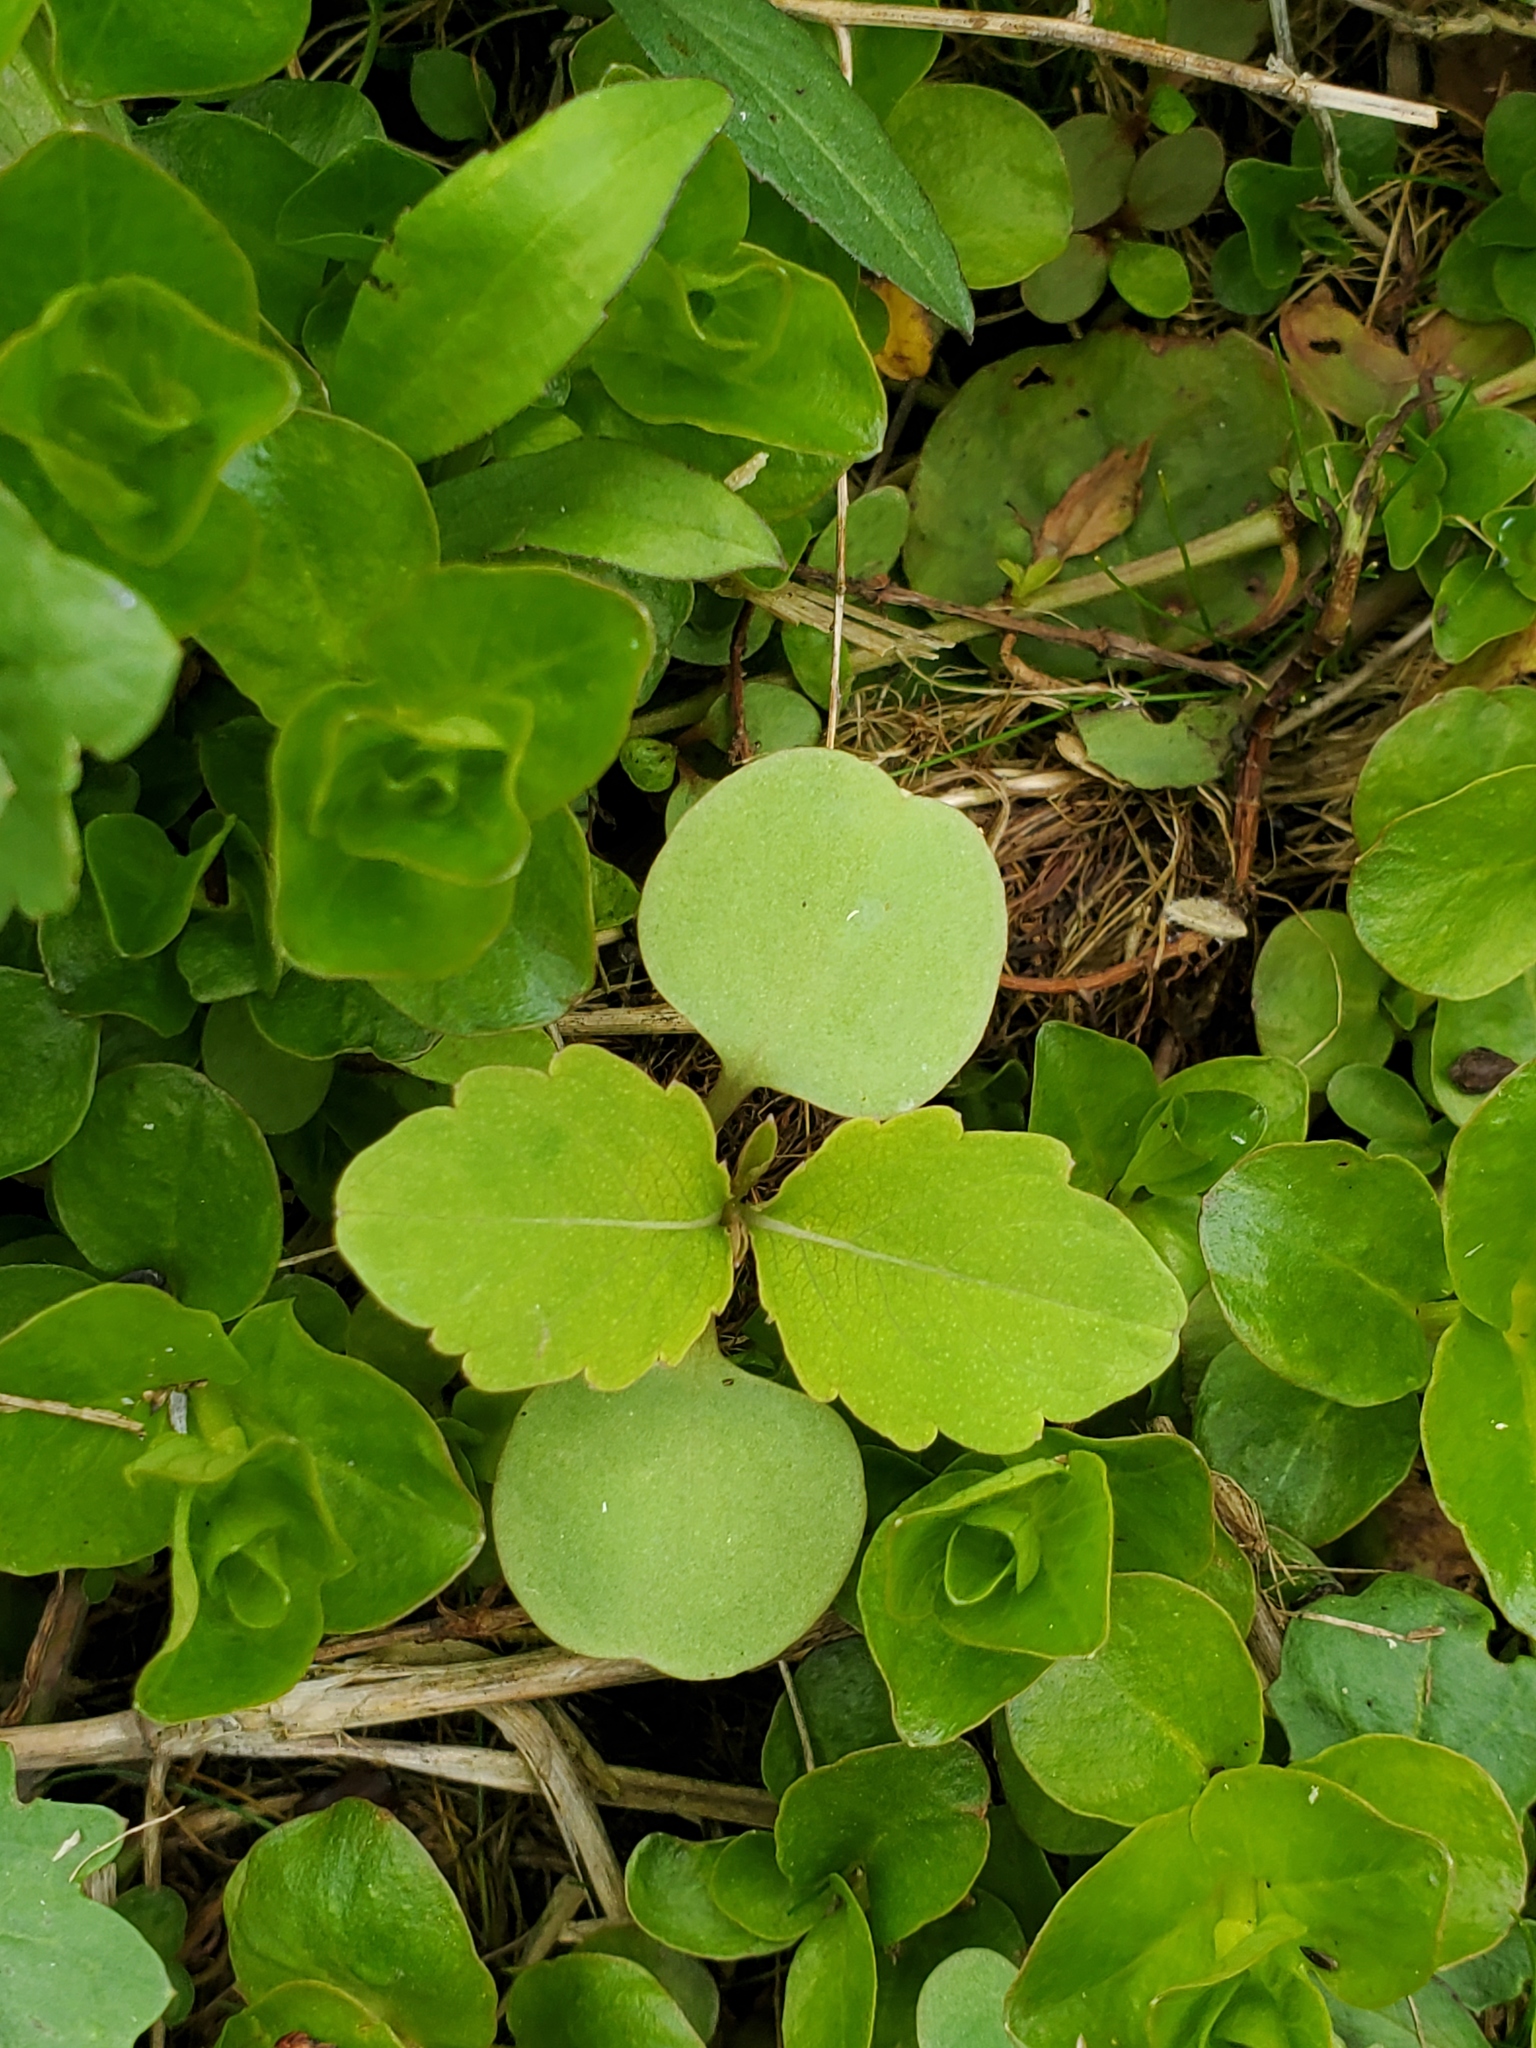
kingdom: Plantae
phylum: Tracheophyta
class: Magnoliopsida
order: Ericales
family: Balsaminaceae
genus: Impatiens
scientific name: Impatiens capensis
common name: Orange balsam
